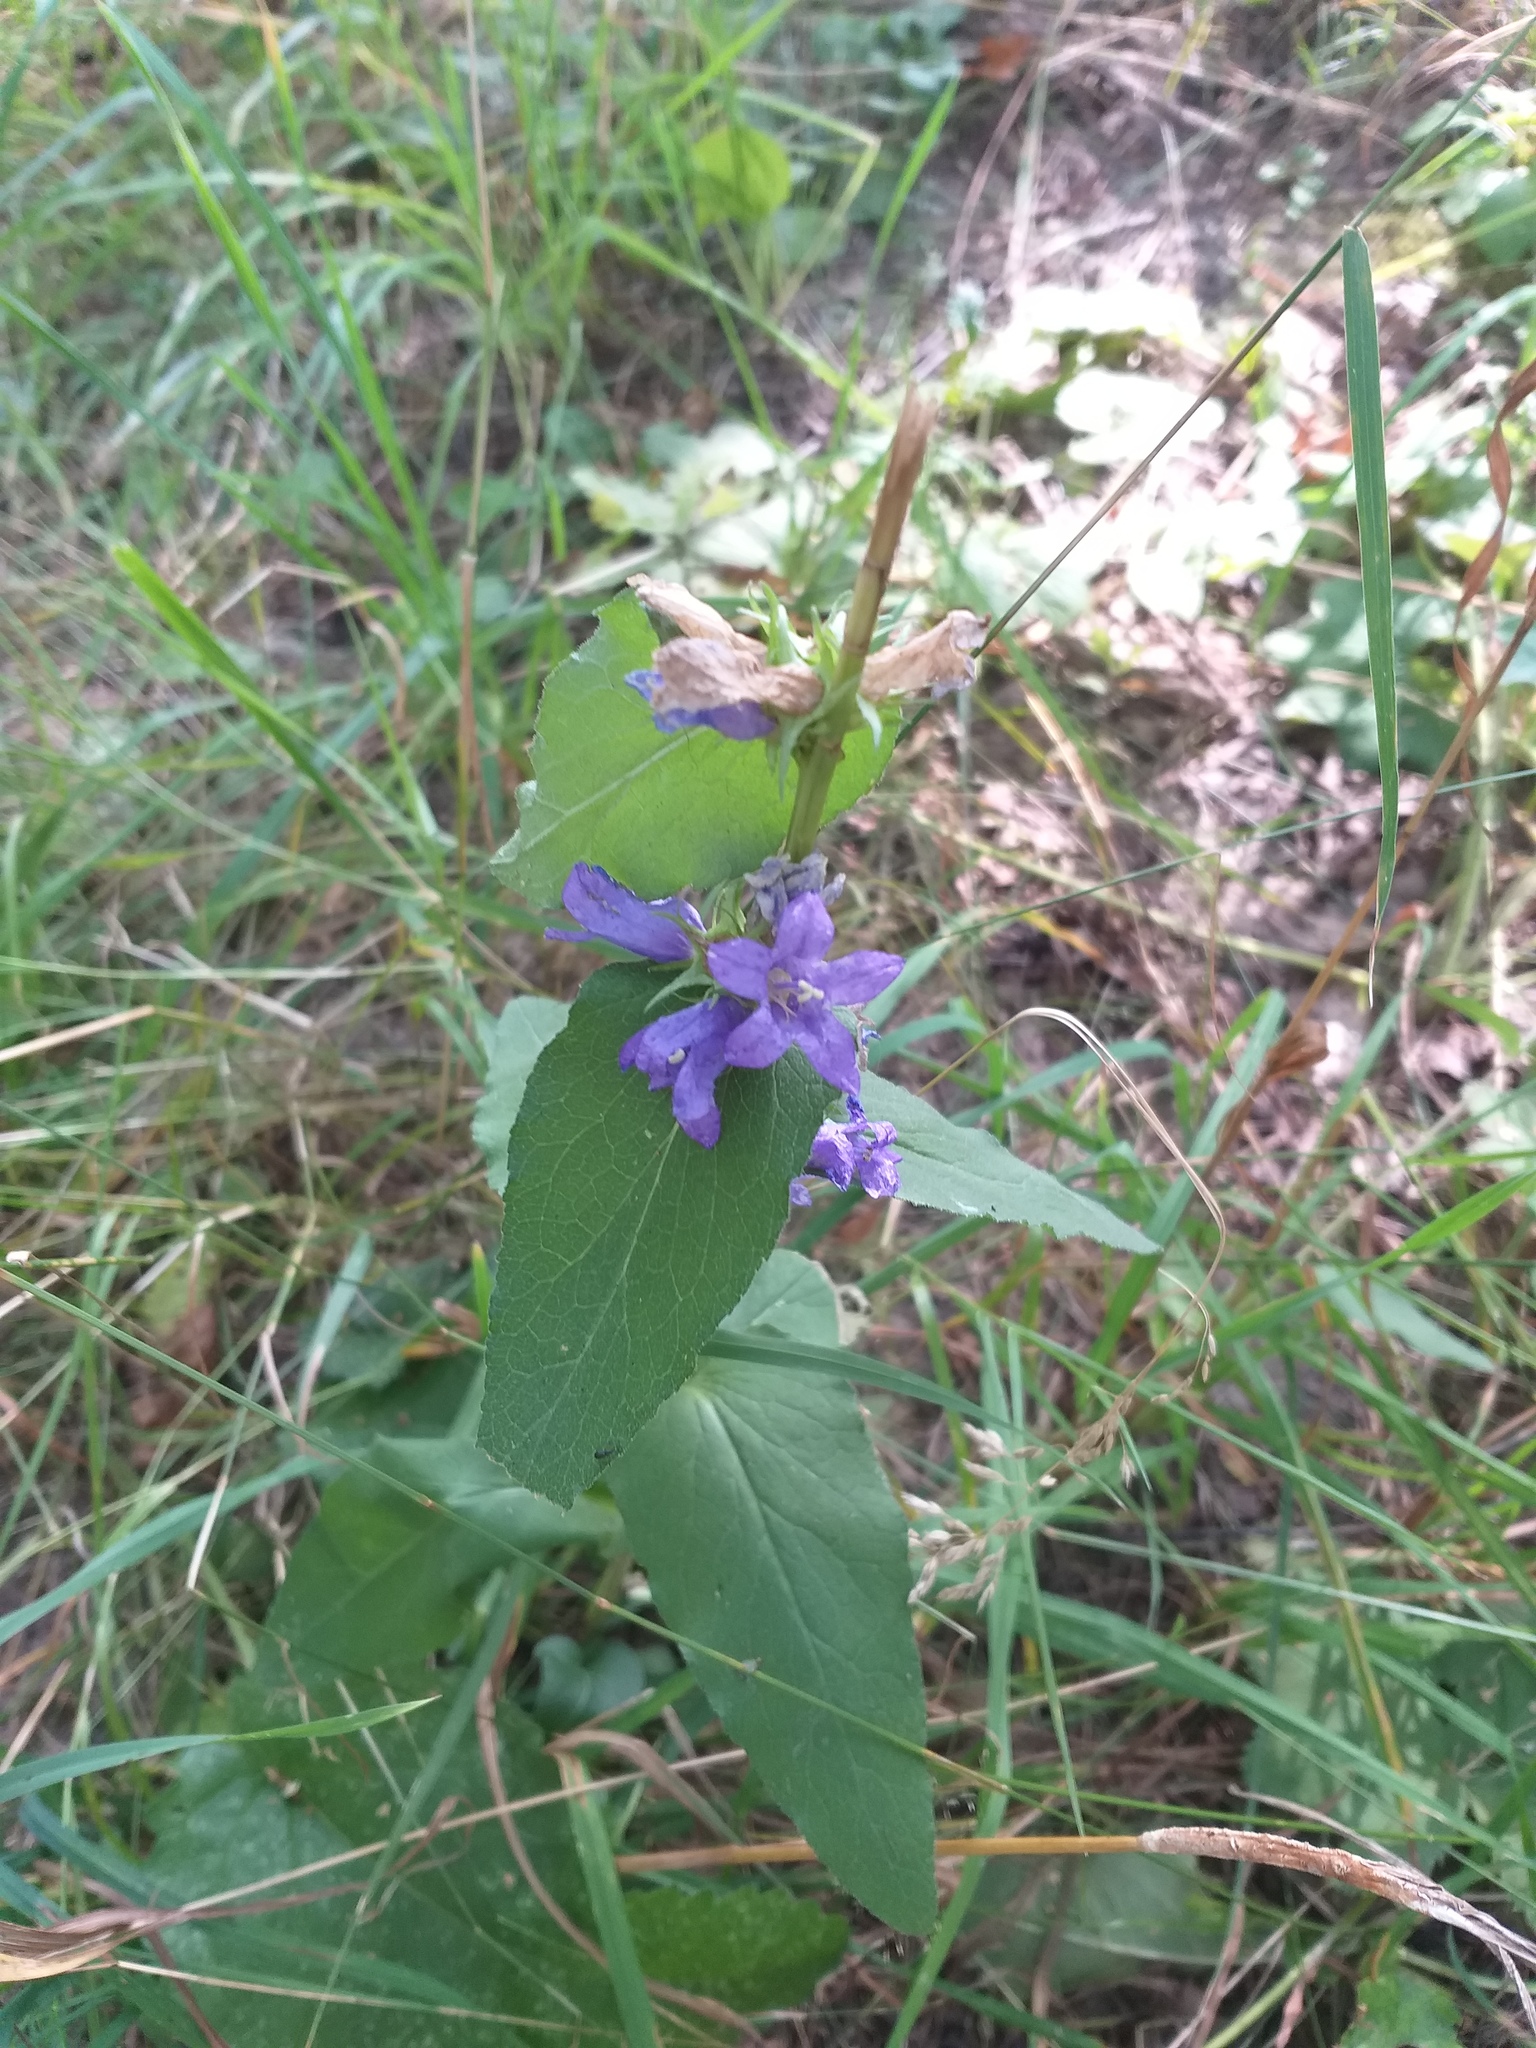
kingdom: Plantae
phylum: Tracheophyta
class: Magnoliopsida
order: Asterales
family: Campanulaceae
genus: Campanula
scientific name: Campanula glomerata
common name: Clustered bellflower
